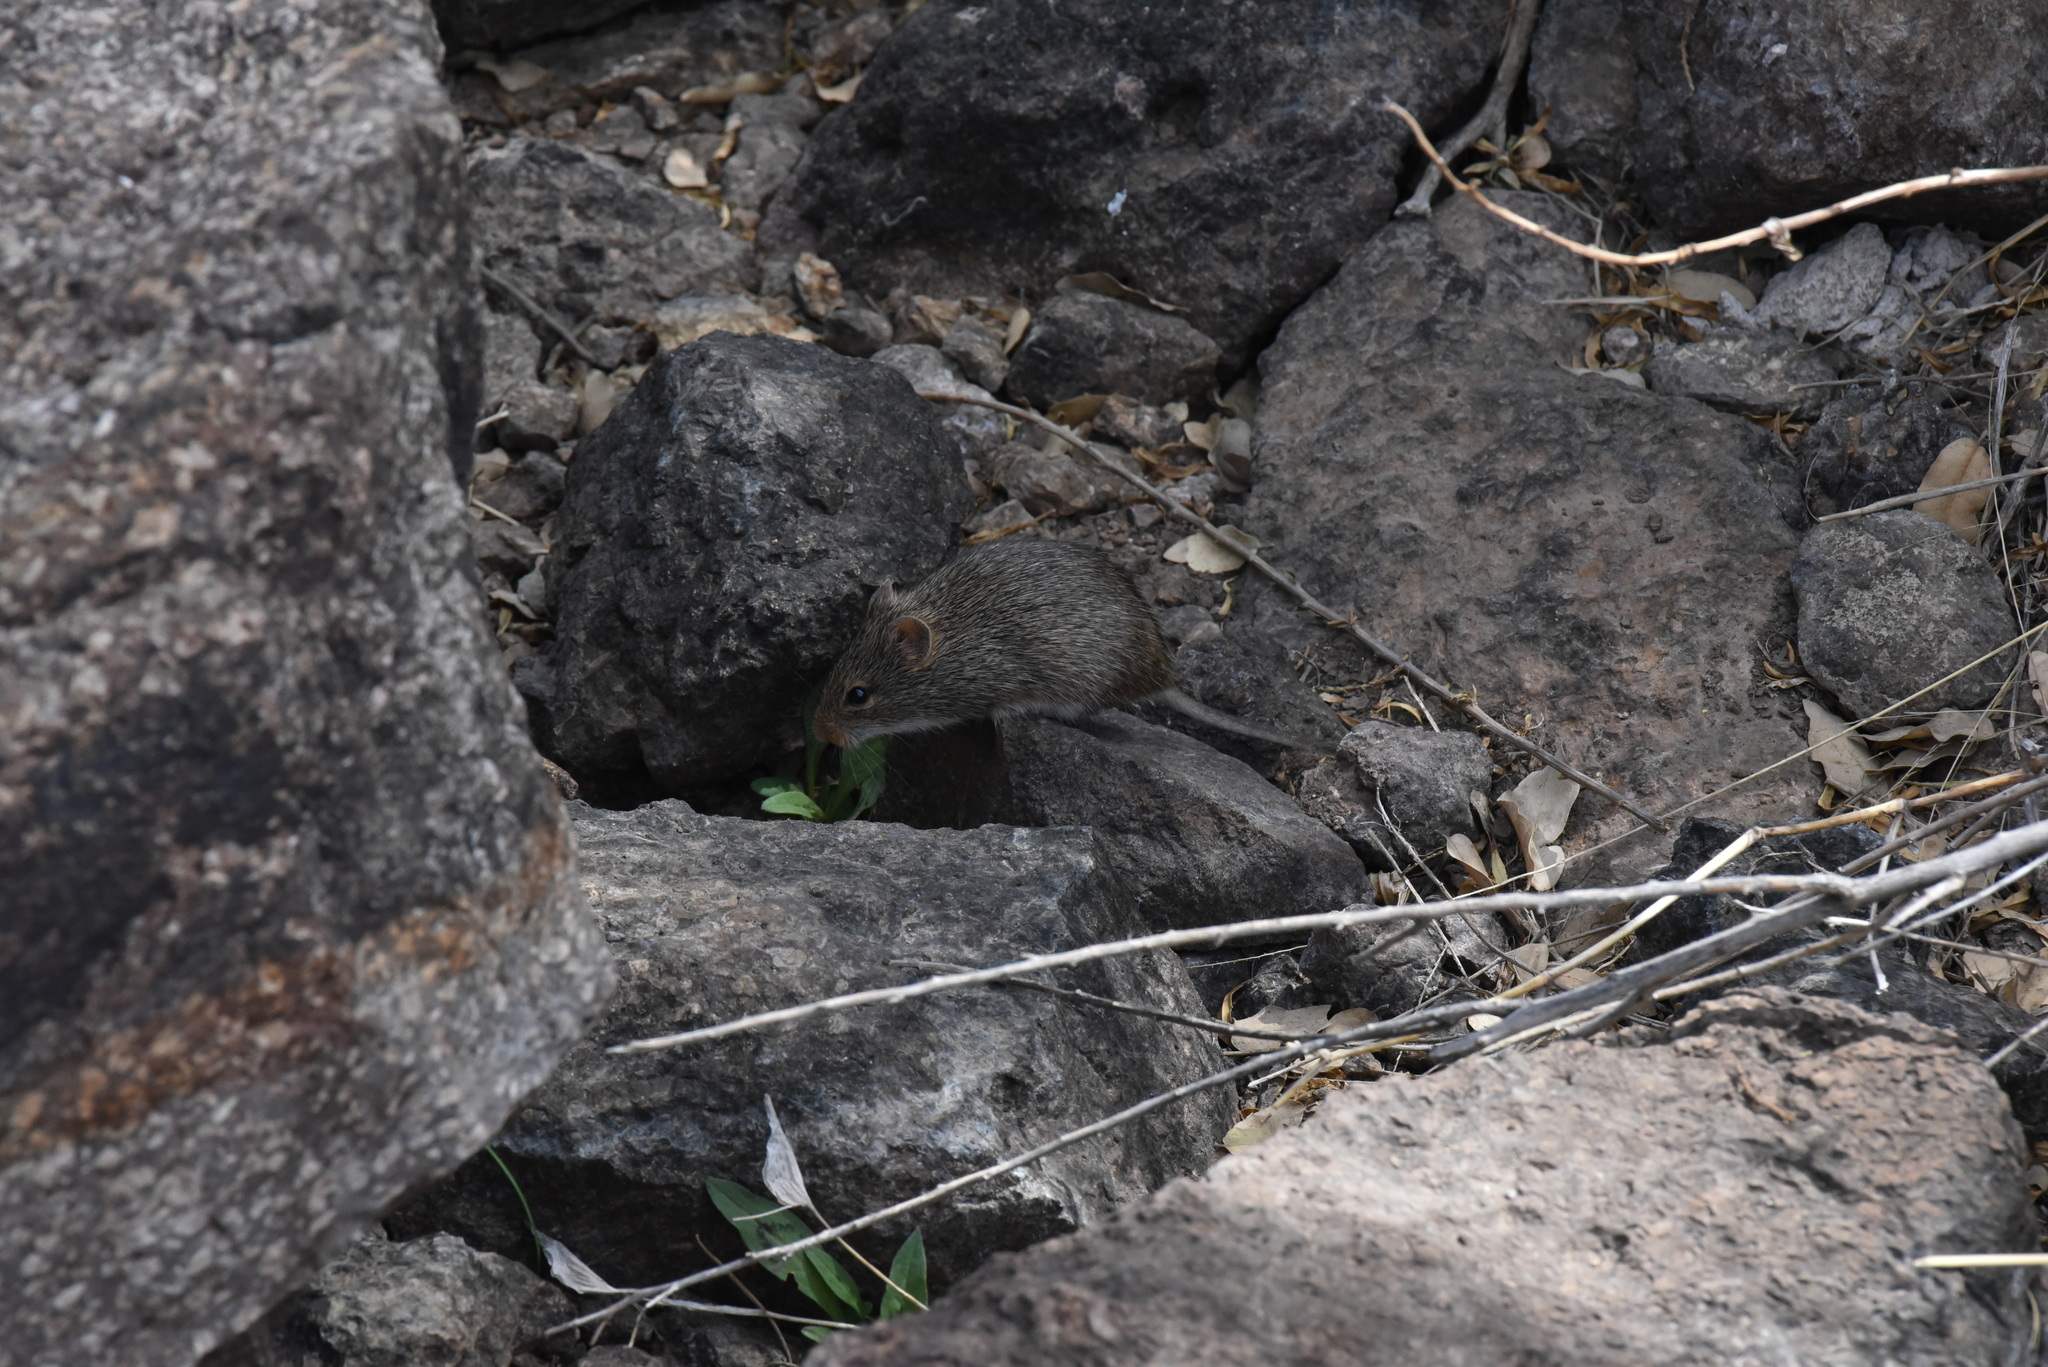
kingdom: Animalia
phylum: Chordata
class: Mammalia
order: Rodentia
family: Cricetidae
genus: Sigmodon
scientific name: Sigmodon ochrognathus
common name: Yellow-nosed cotton rat
